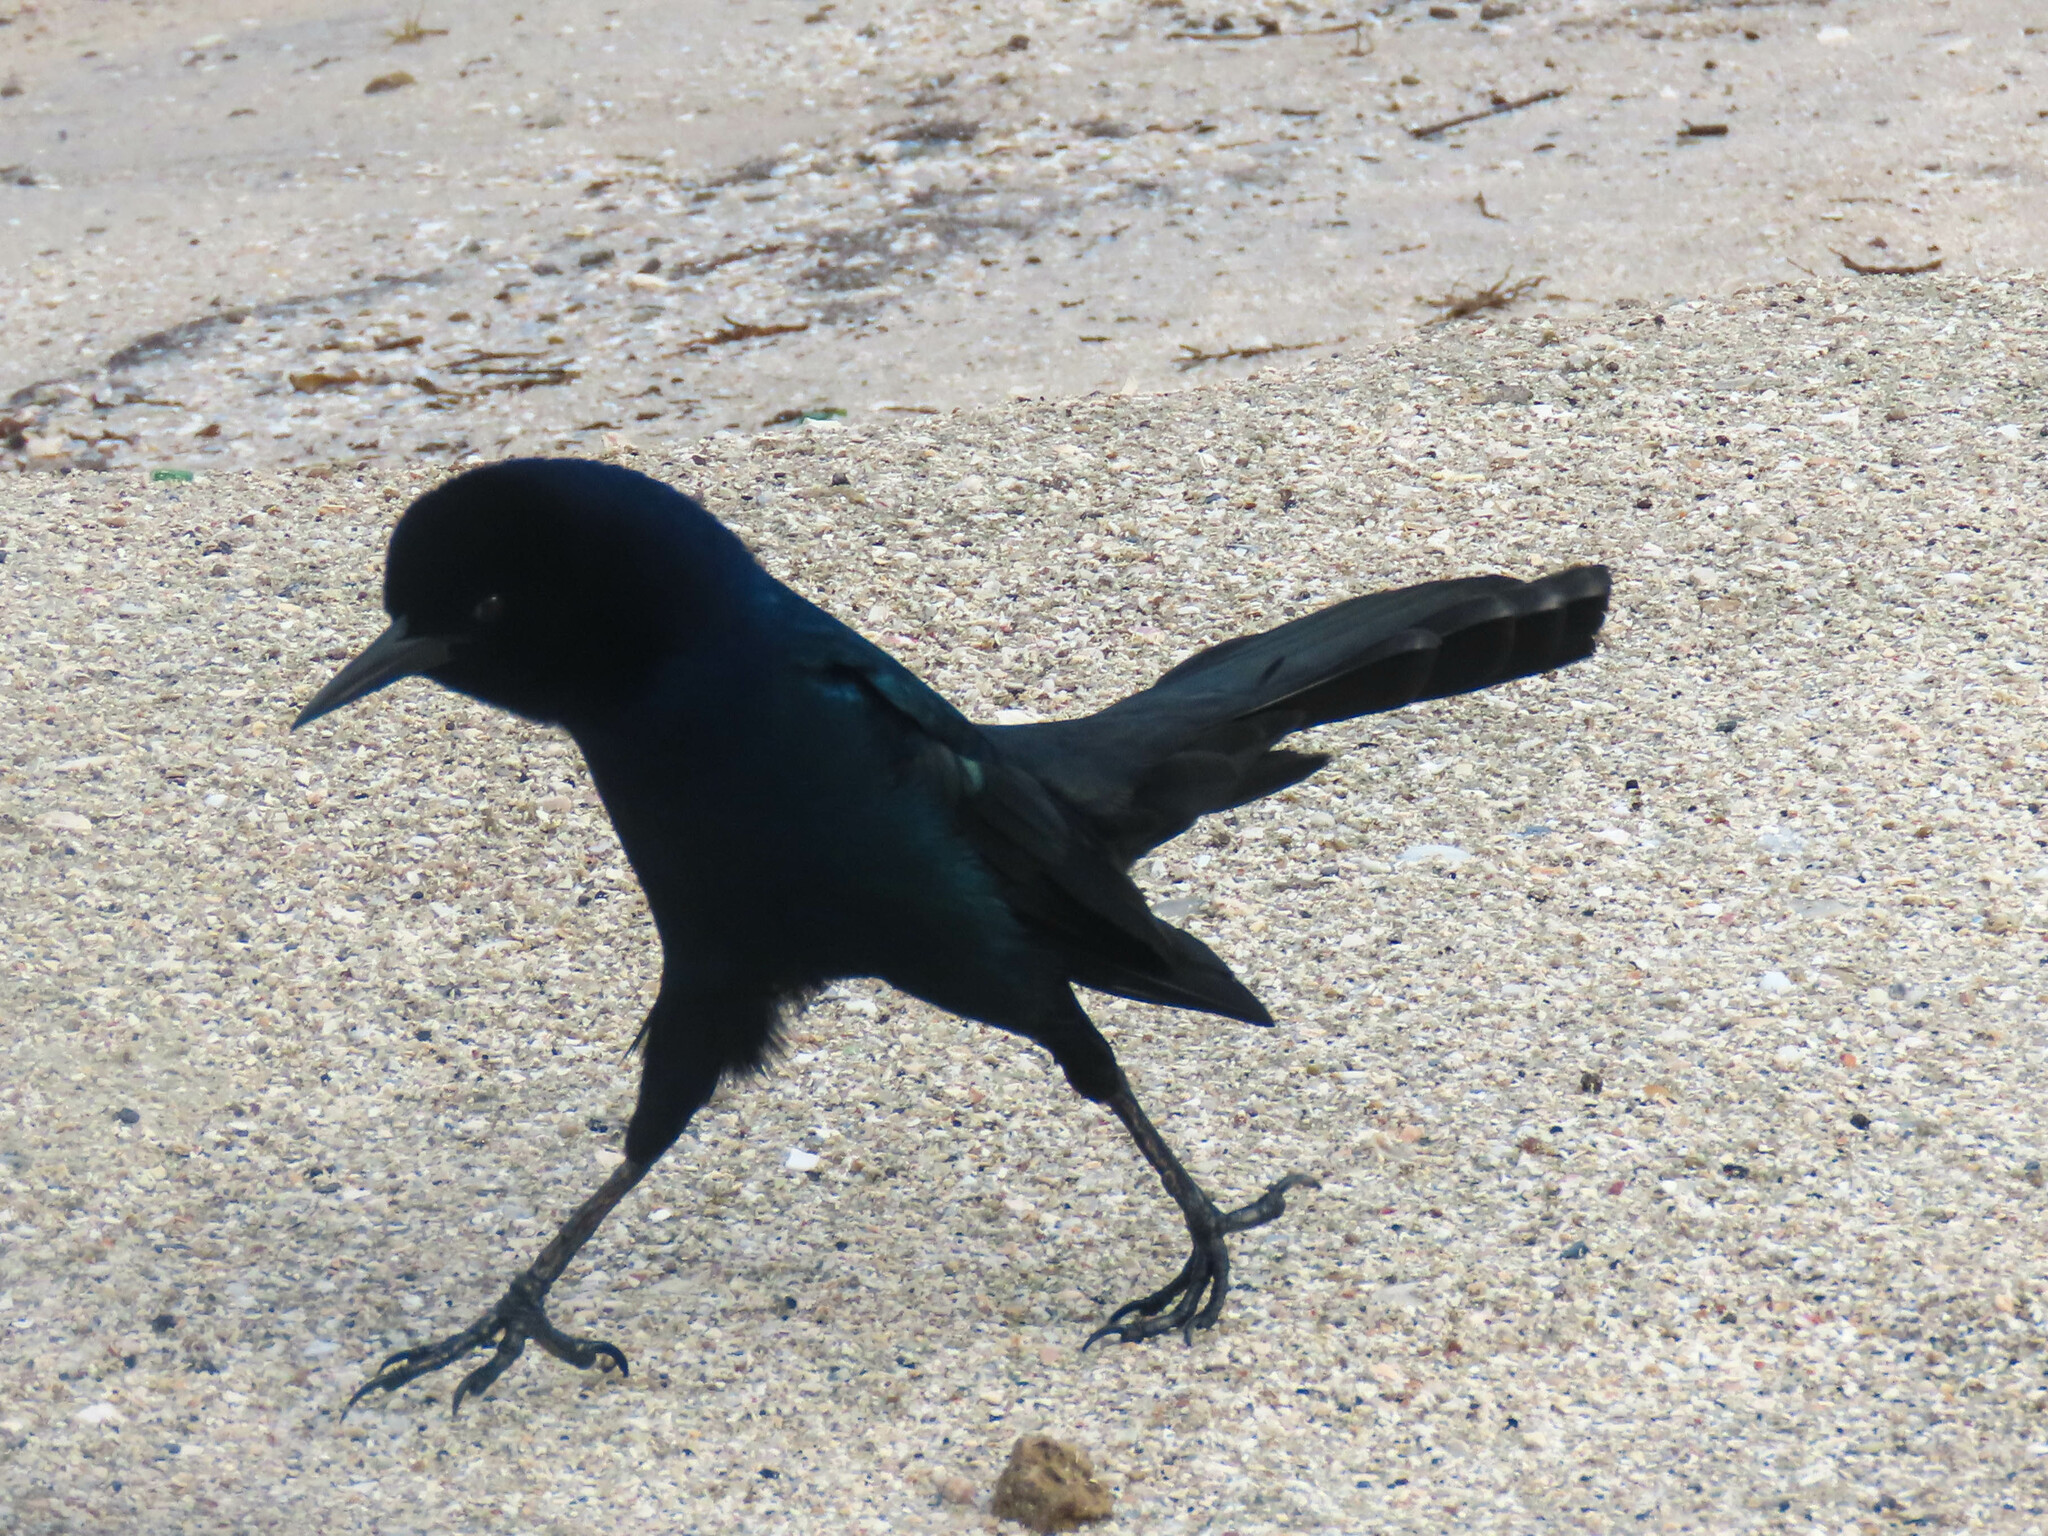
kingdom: Animalia
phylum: Chordata
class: Aves
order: Passeriformes
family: Icteridae
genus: Quiscalus
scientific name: Quiscalus major
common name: Boat-tailed grackle
